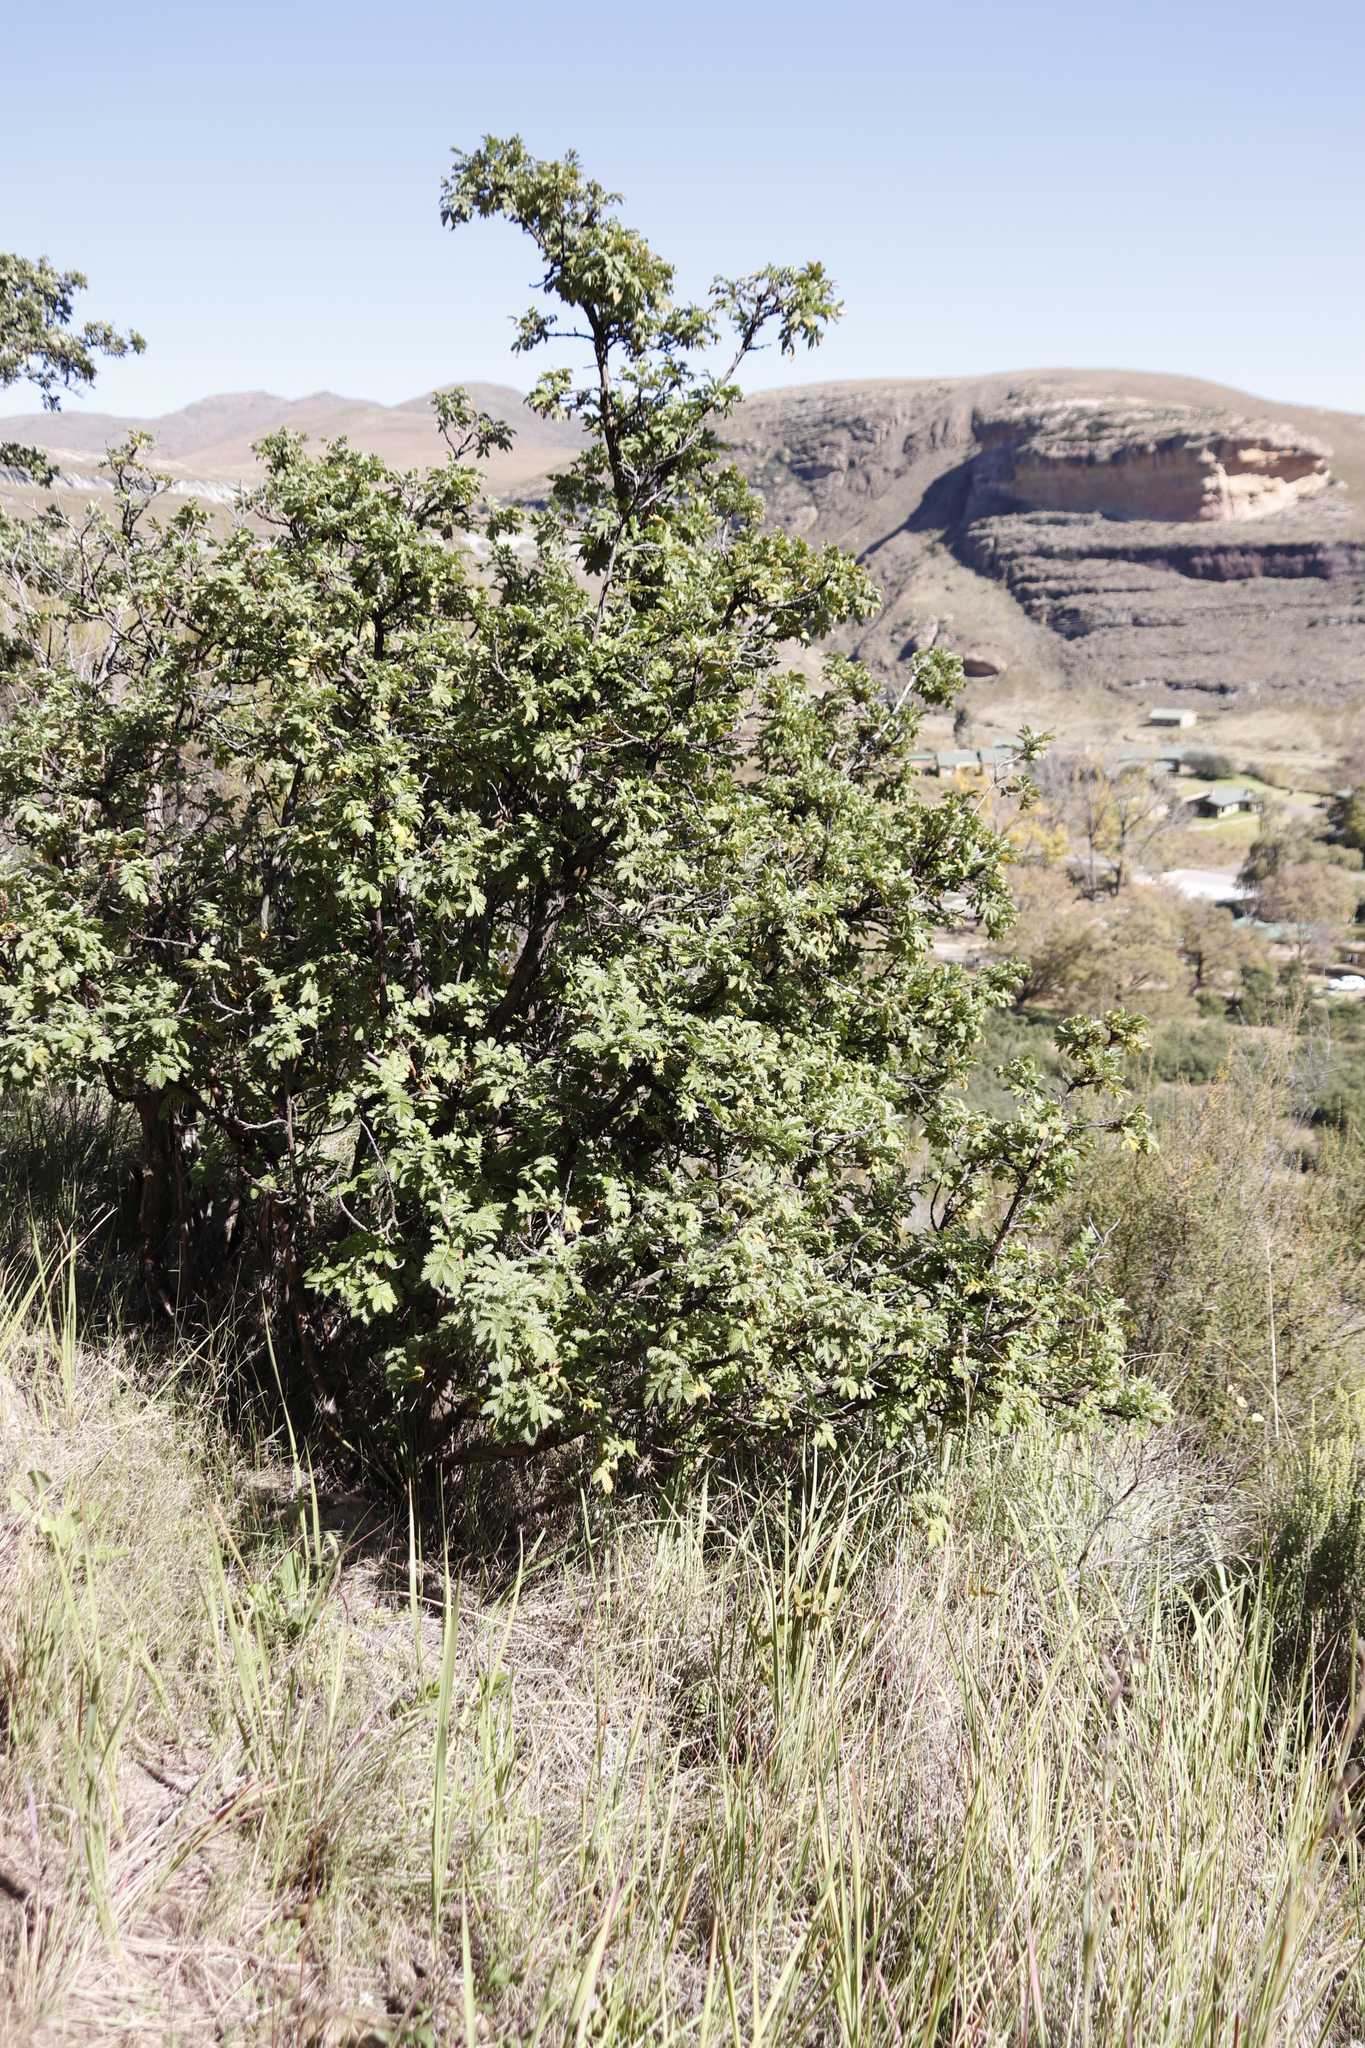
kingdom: Plantae
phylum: Tracheophyta
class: Magnoliopsida
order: Rosales
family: Rosaceae
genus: Leucosidea
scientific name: Leucosidea sericea
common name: Oldwood
